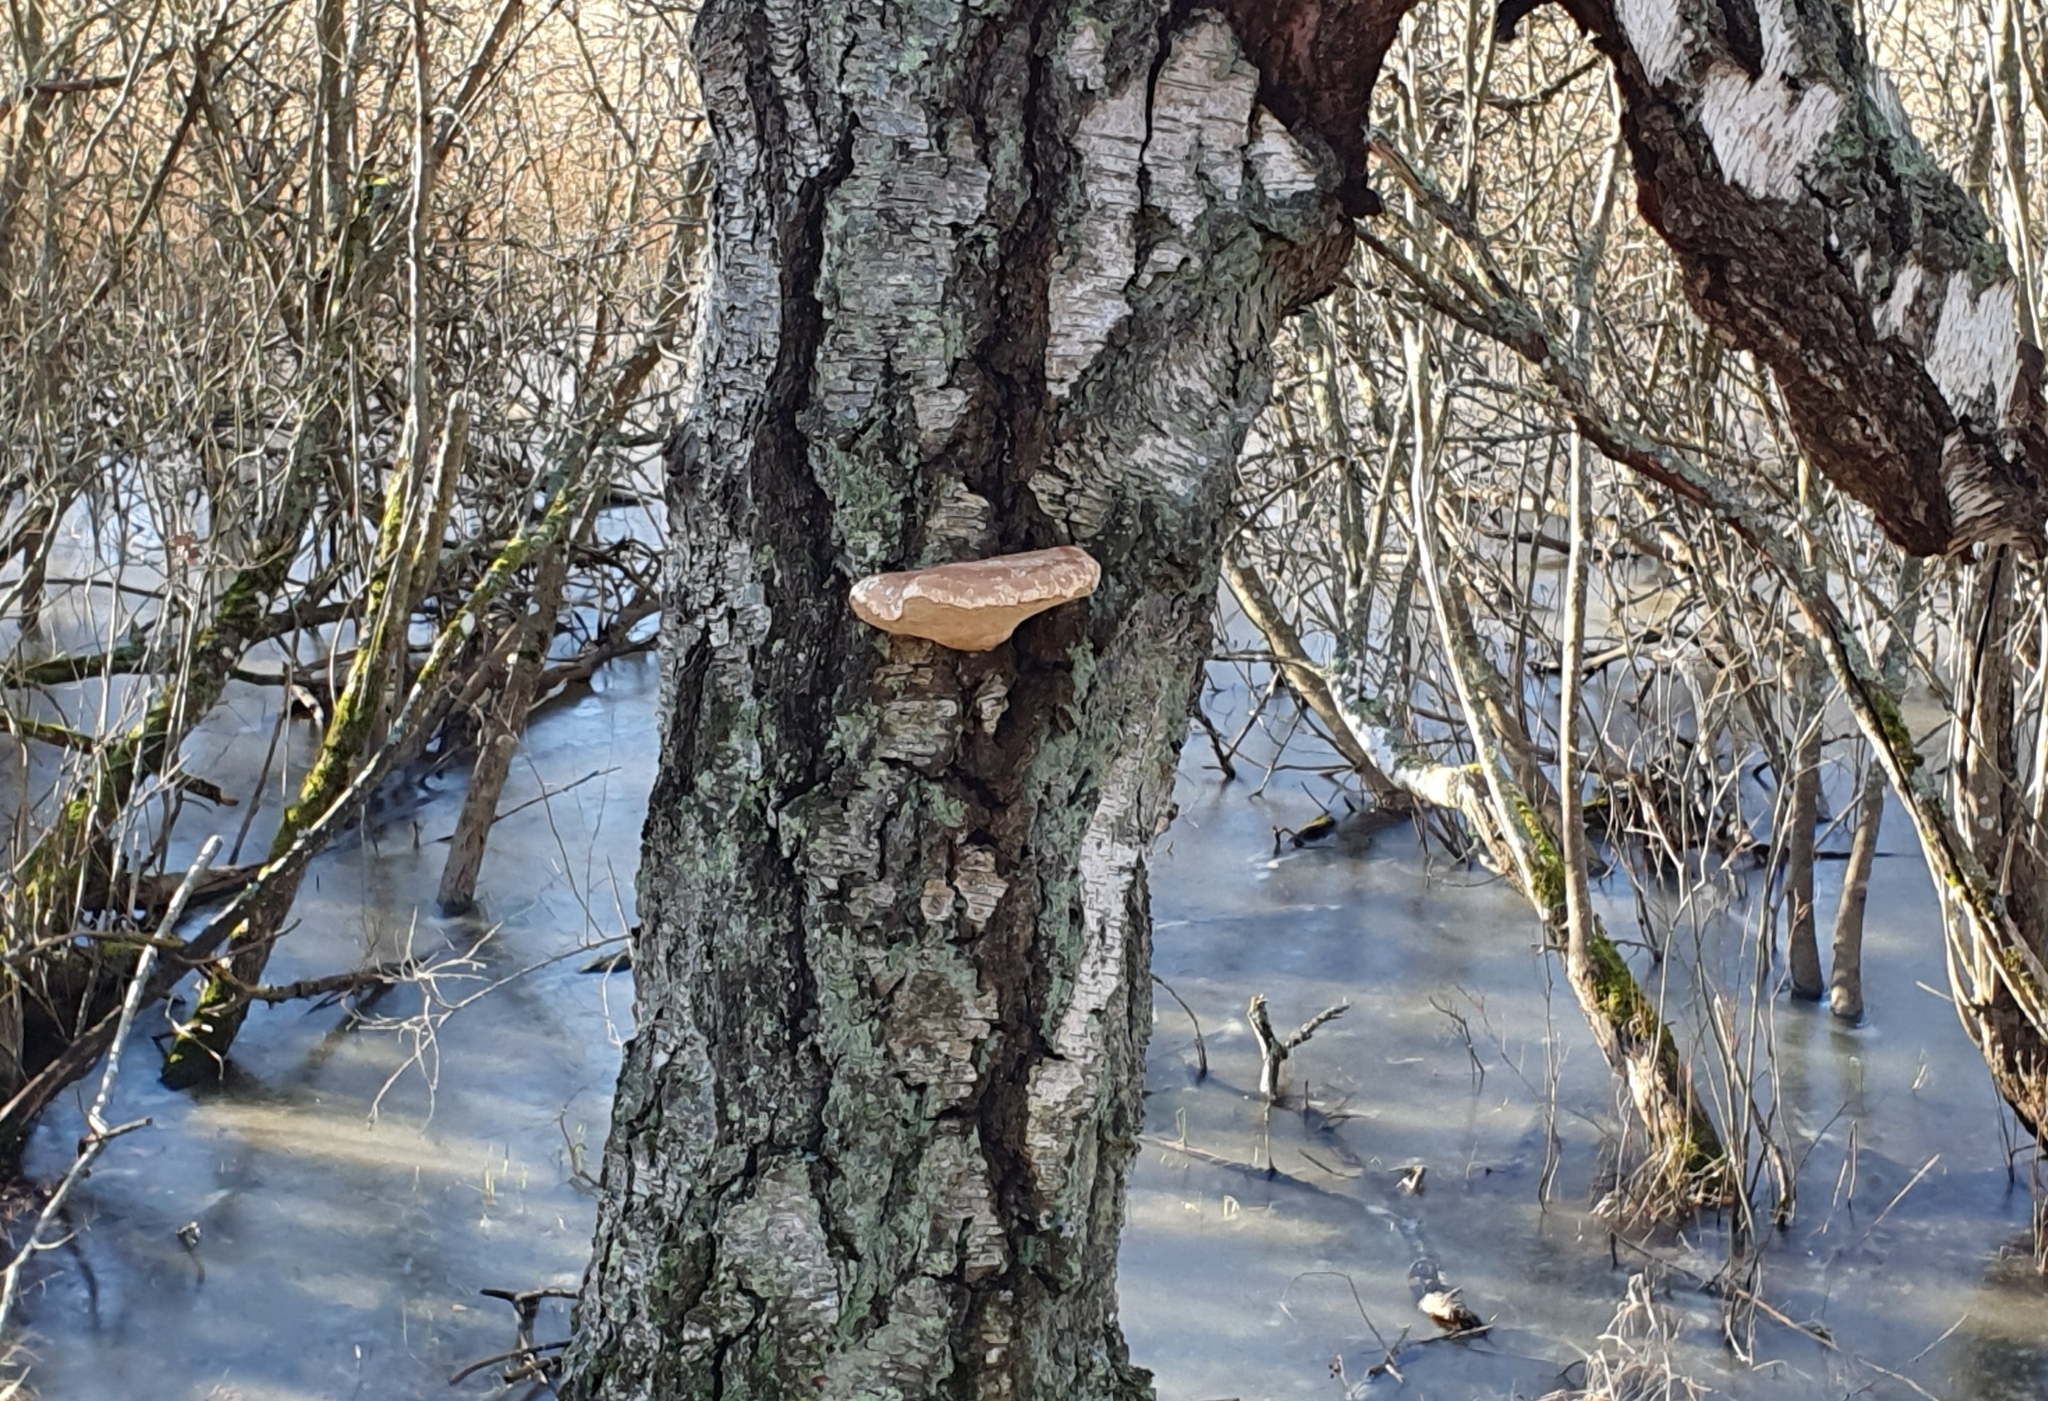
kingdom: Fungi
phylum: Basidiomycota
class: Agaricomycetes
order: Polyporales
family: Fomitopsidaceae
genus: Fomitopsis
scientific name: Fomitopsis betulina
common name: Birch polypore
